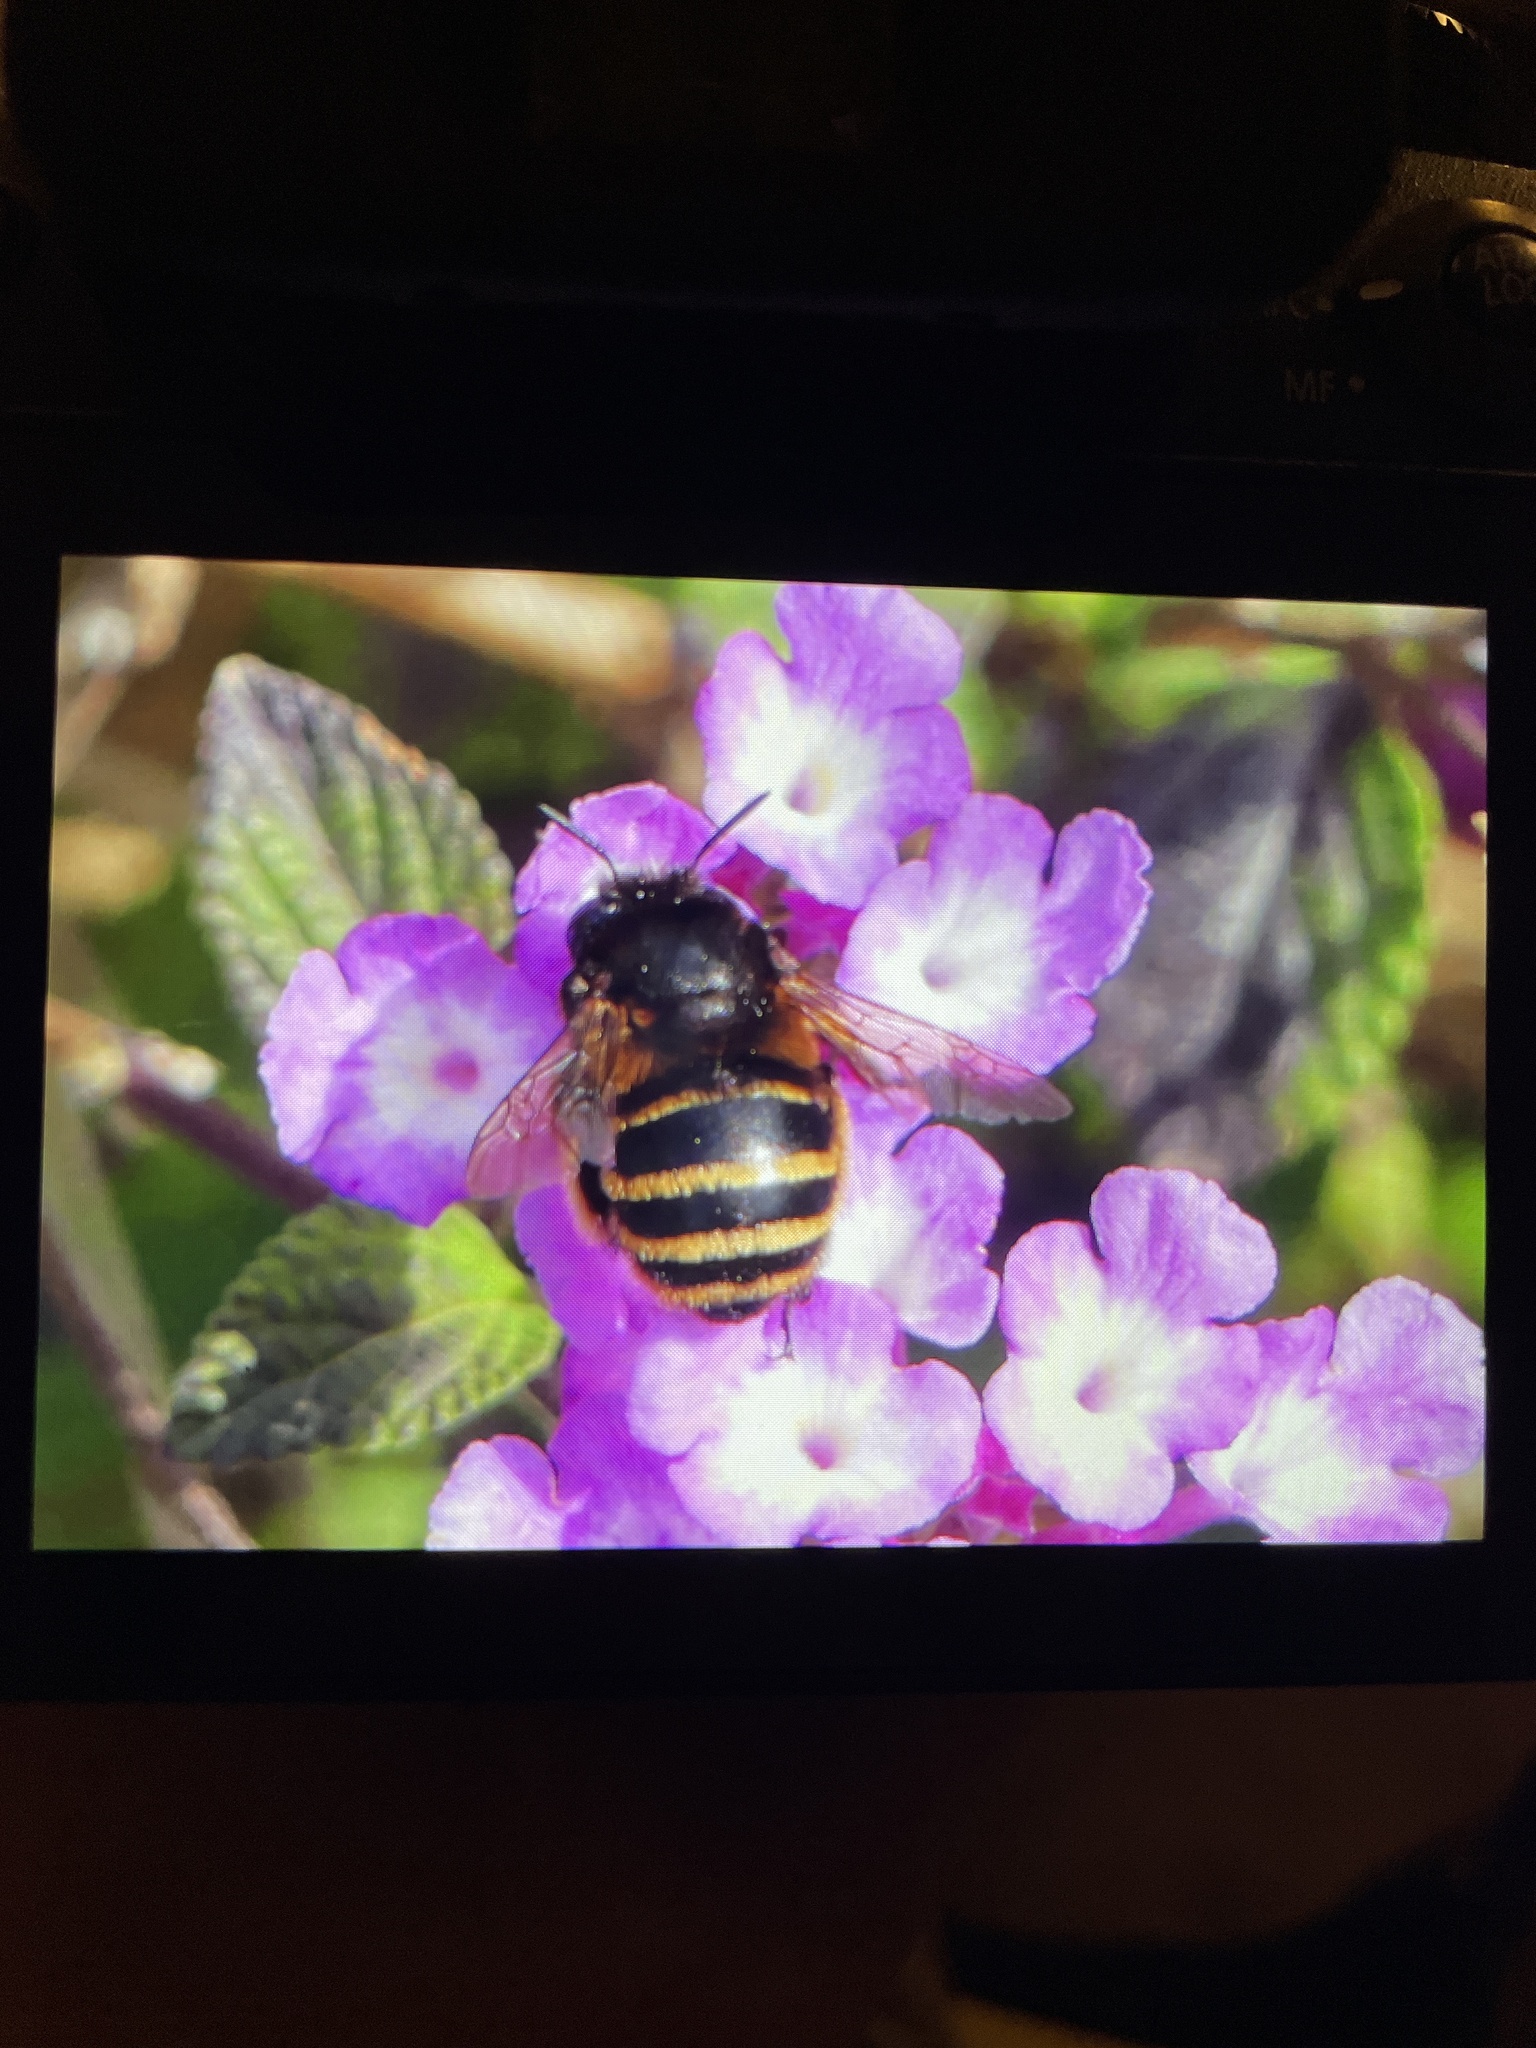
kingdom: Animalia
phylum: Arthropoda
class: Insecta
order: Hymenoptera
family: Apidae
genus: Amegilla
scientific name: Amegilla quadrifasciata
